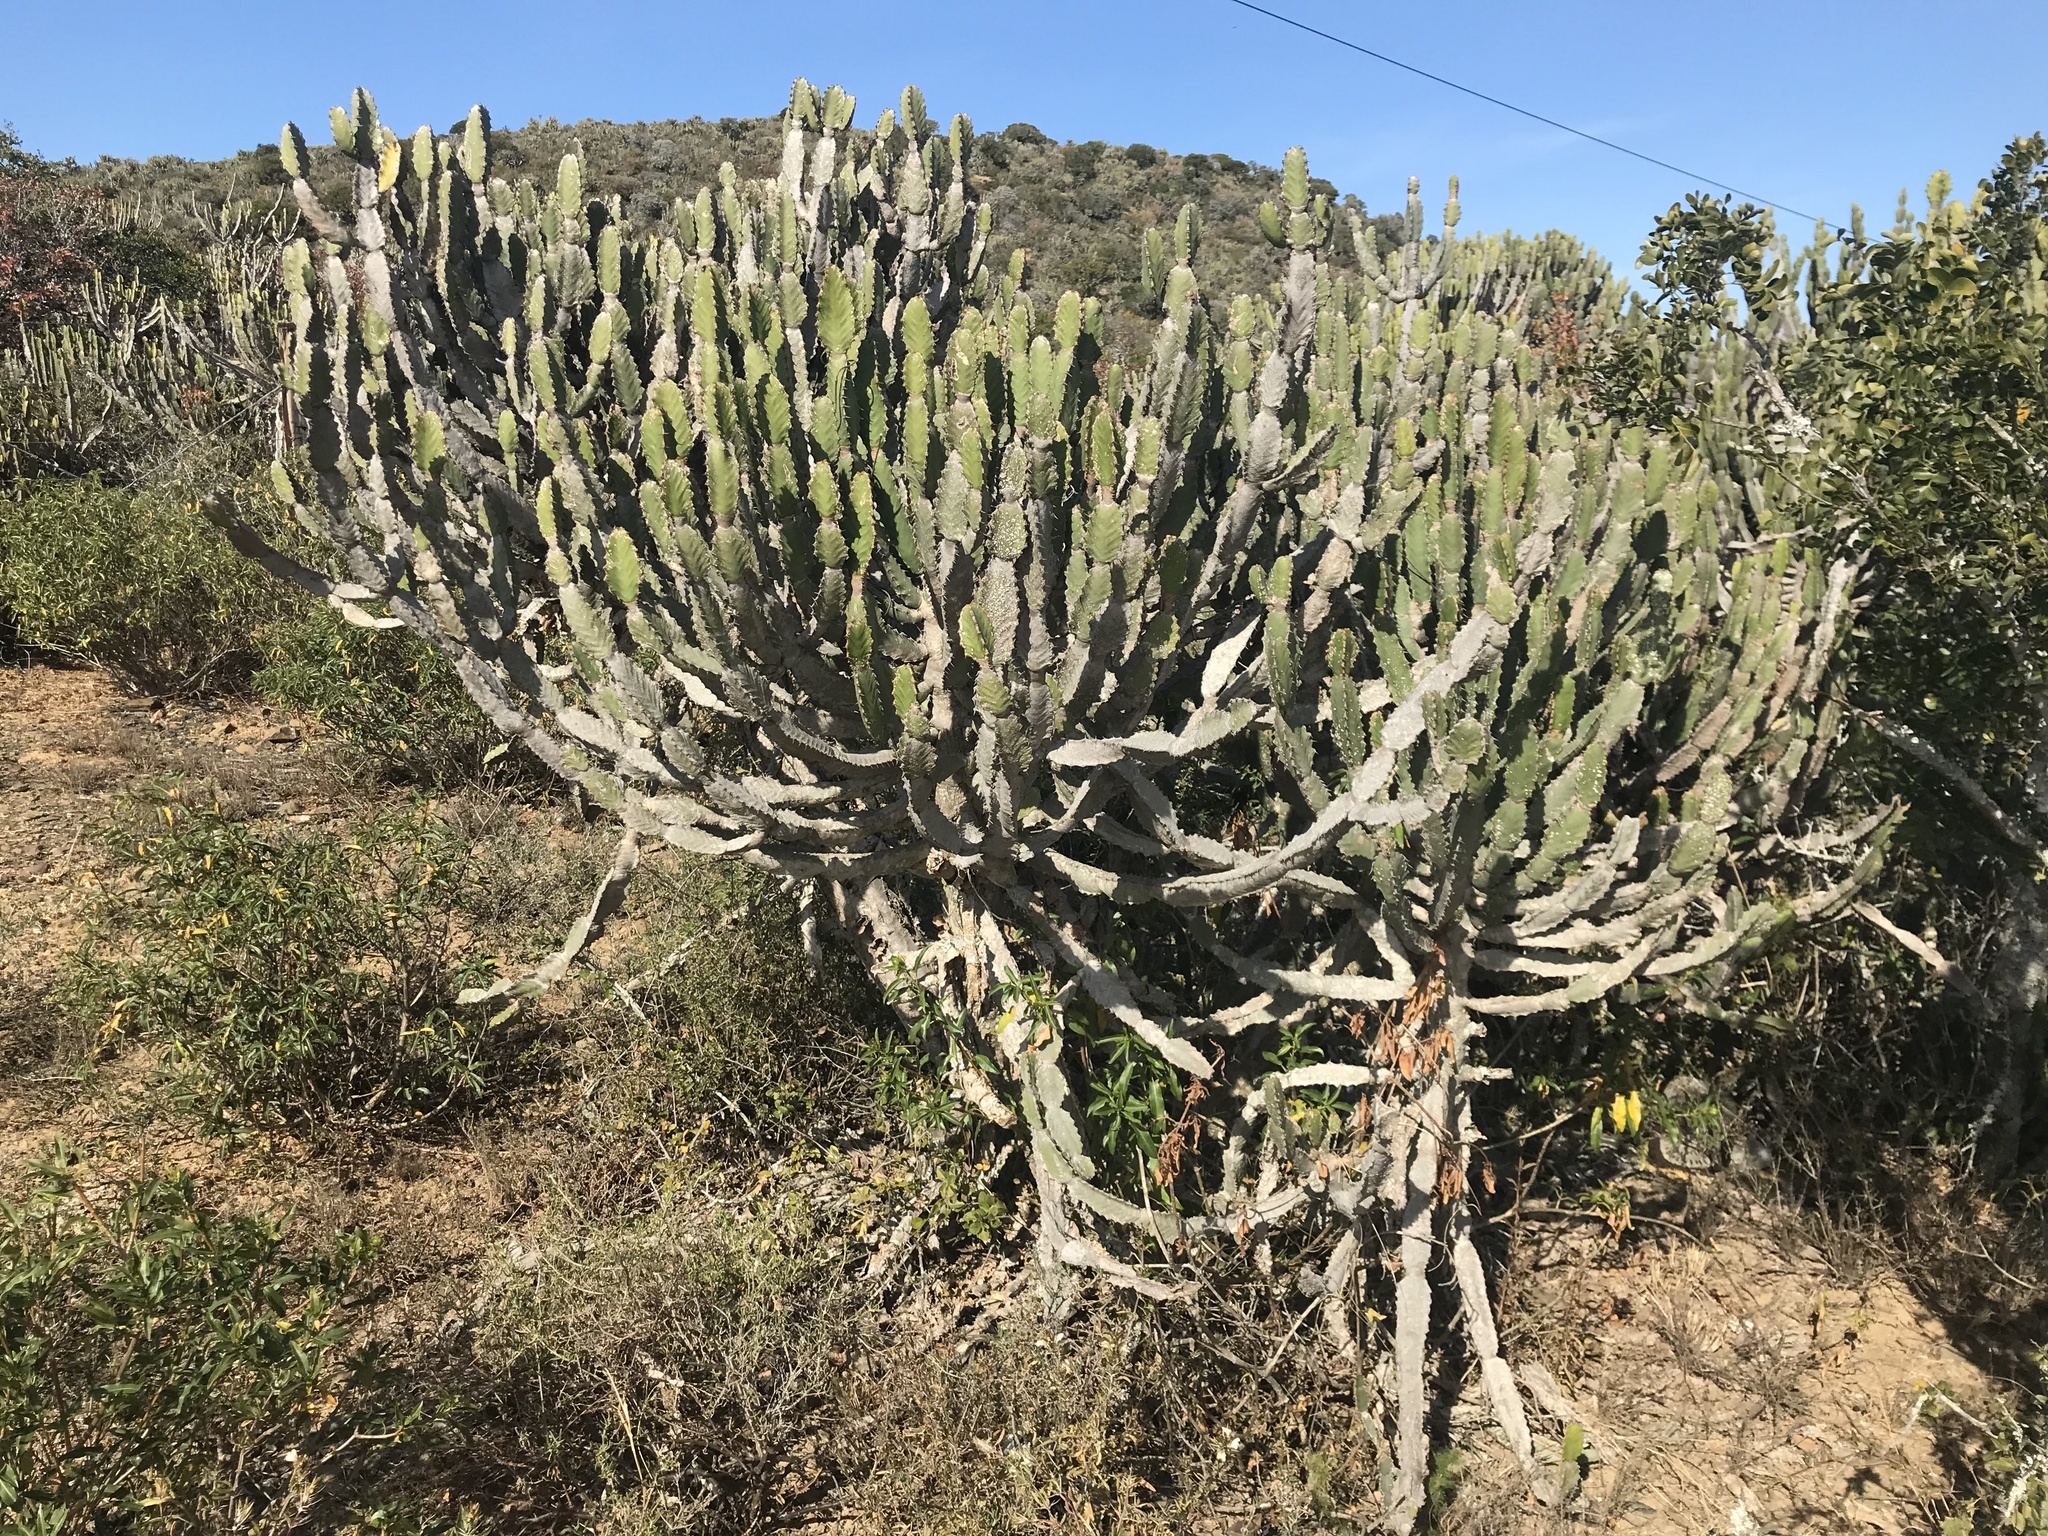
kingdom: Plantae
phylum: Tracheophyta
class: Magnoliopsida
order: Malpighiales
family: Euphorbiaceae
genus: Euphorbia
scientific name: Euphorbia triangularis
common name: Chandelier tree
